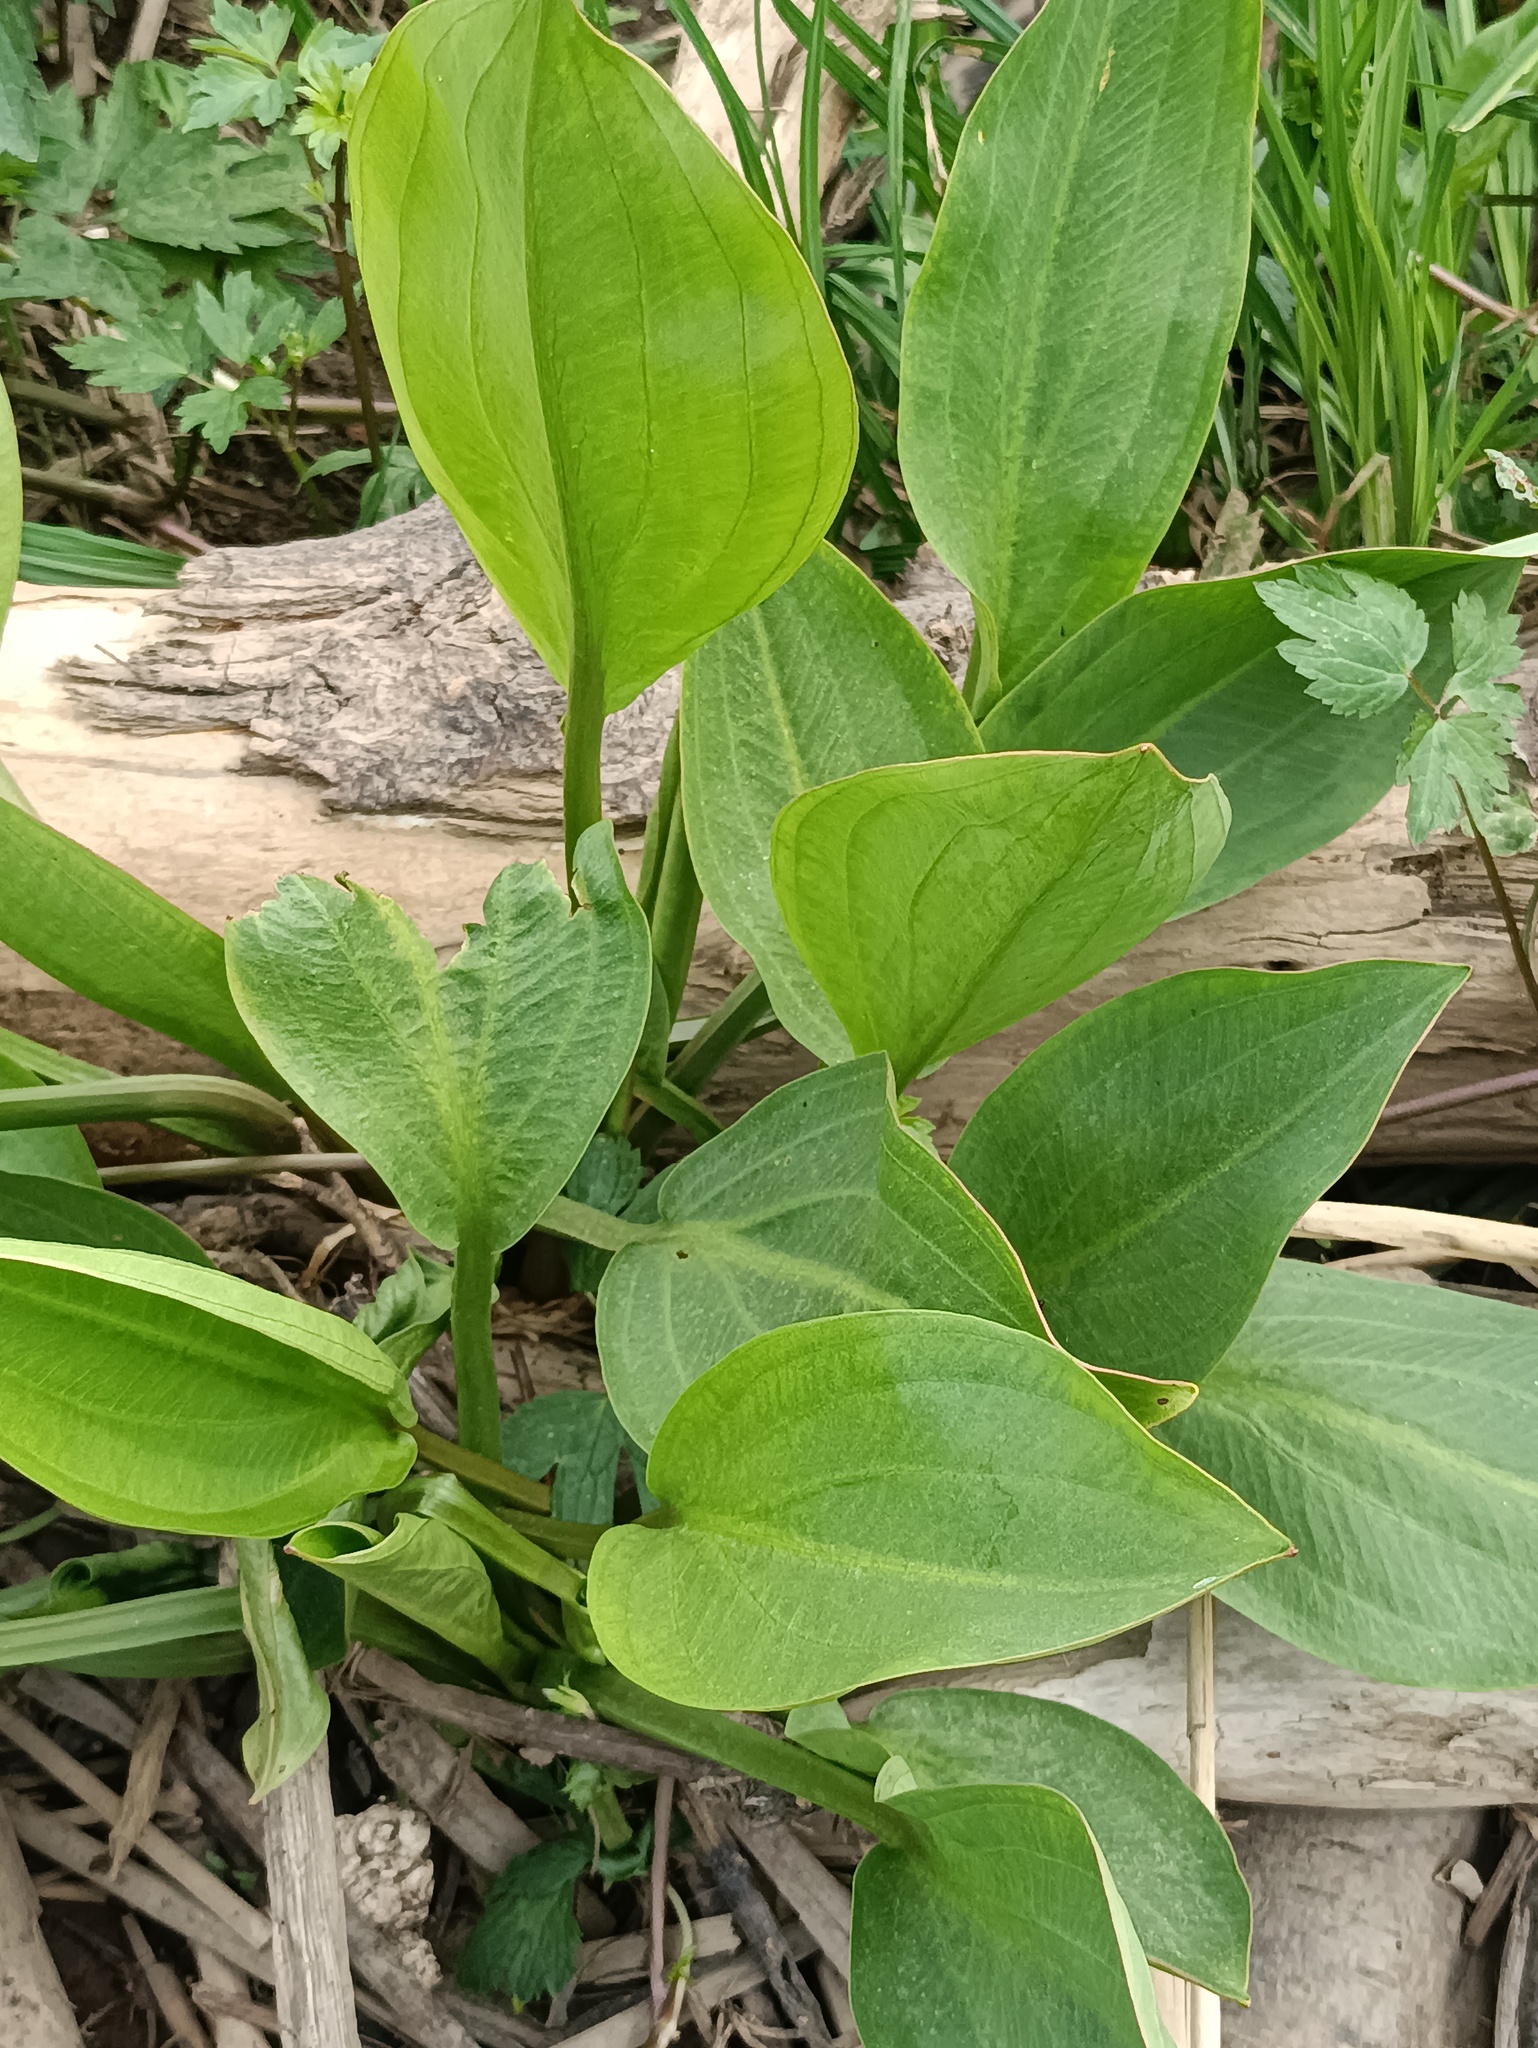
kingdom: Plantae
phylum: Tracheophyta
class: Liliopsida
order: Alismatales
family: Alismataceae
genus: Alisma
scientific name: Alisma plantago-aquatica
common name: Water-plantain
